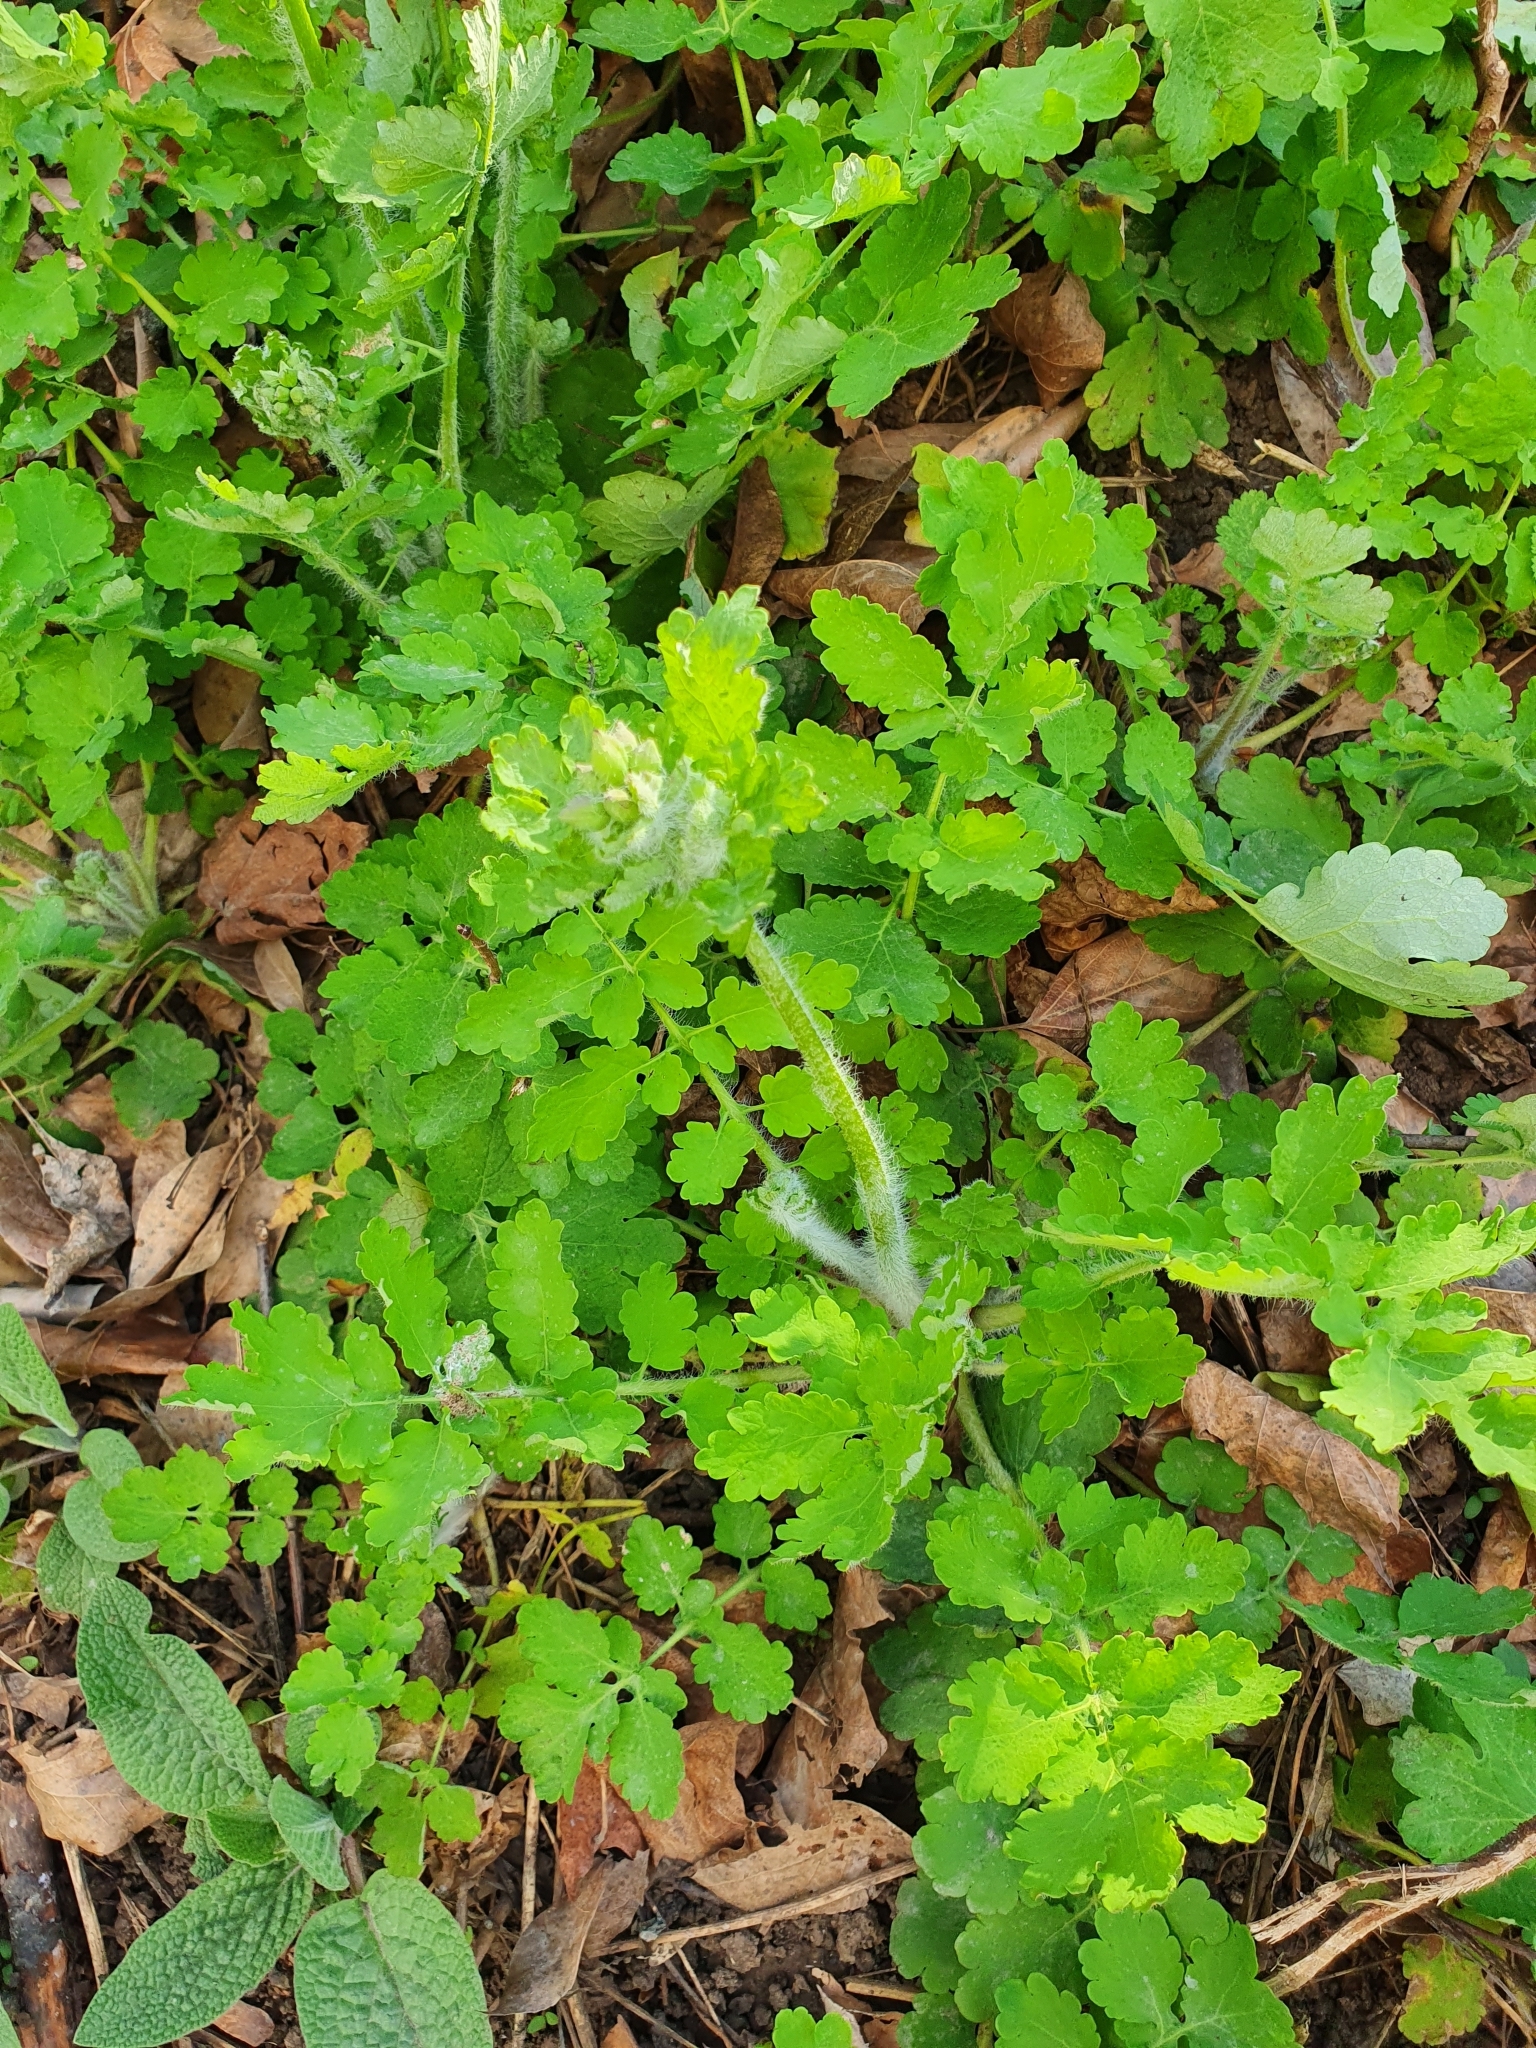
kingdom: Plantae
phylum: Tracheophyta
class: Magnoliopsida
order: Ranunculales
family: Papaveraceae
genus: Chelidonium
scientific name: Chelidonium majus
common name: Greater celandine
